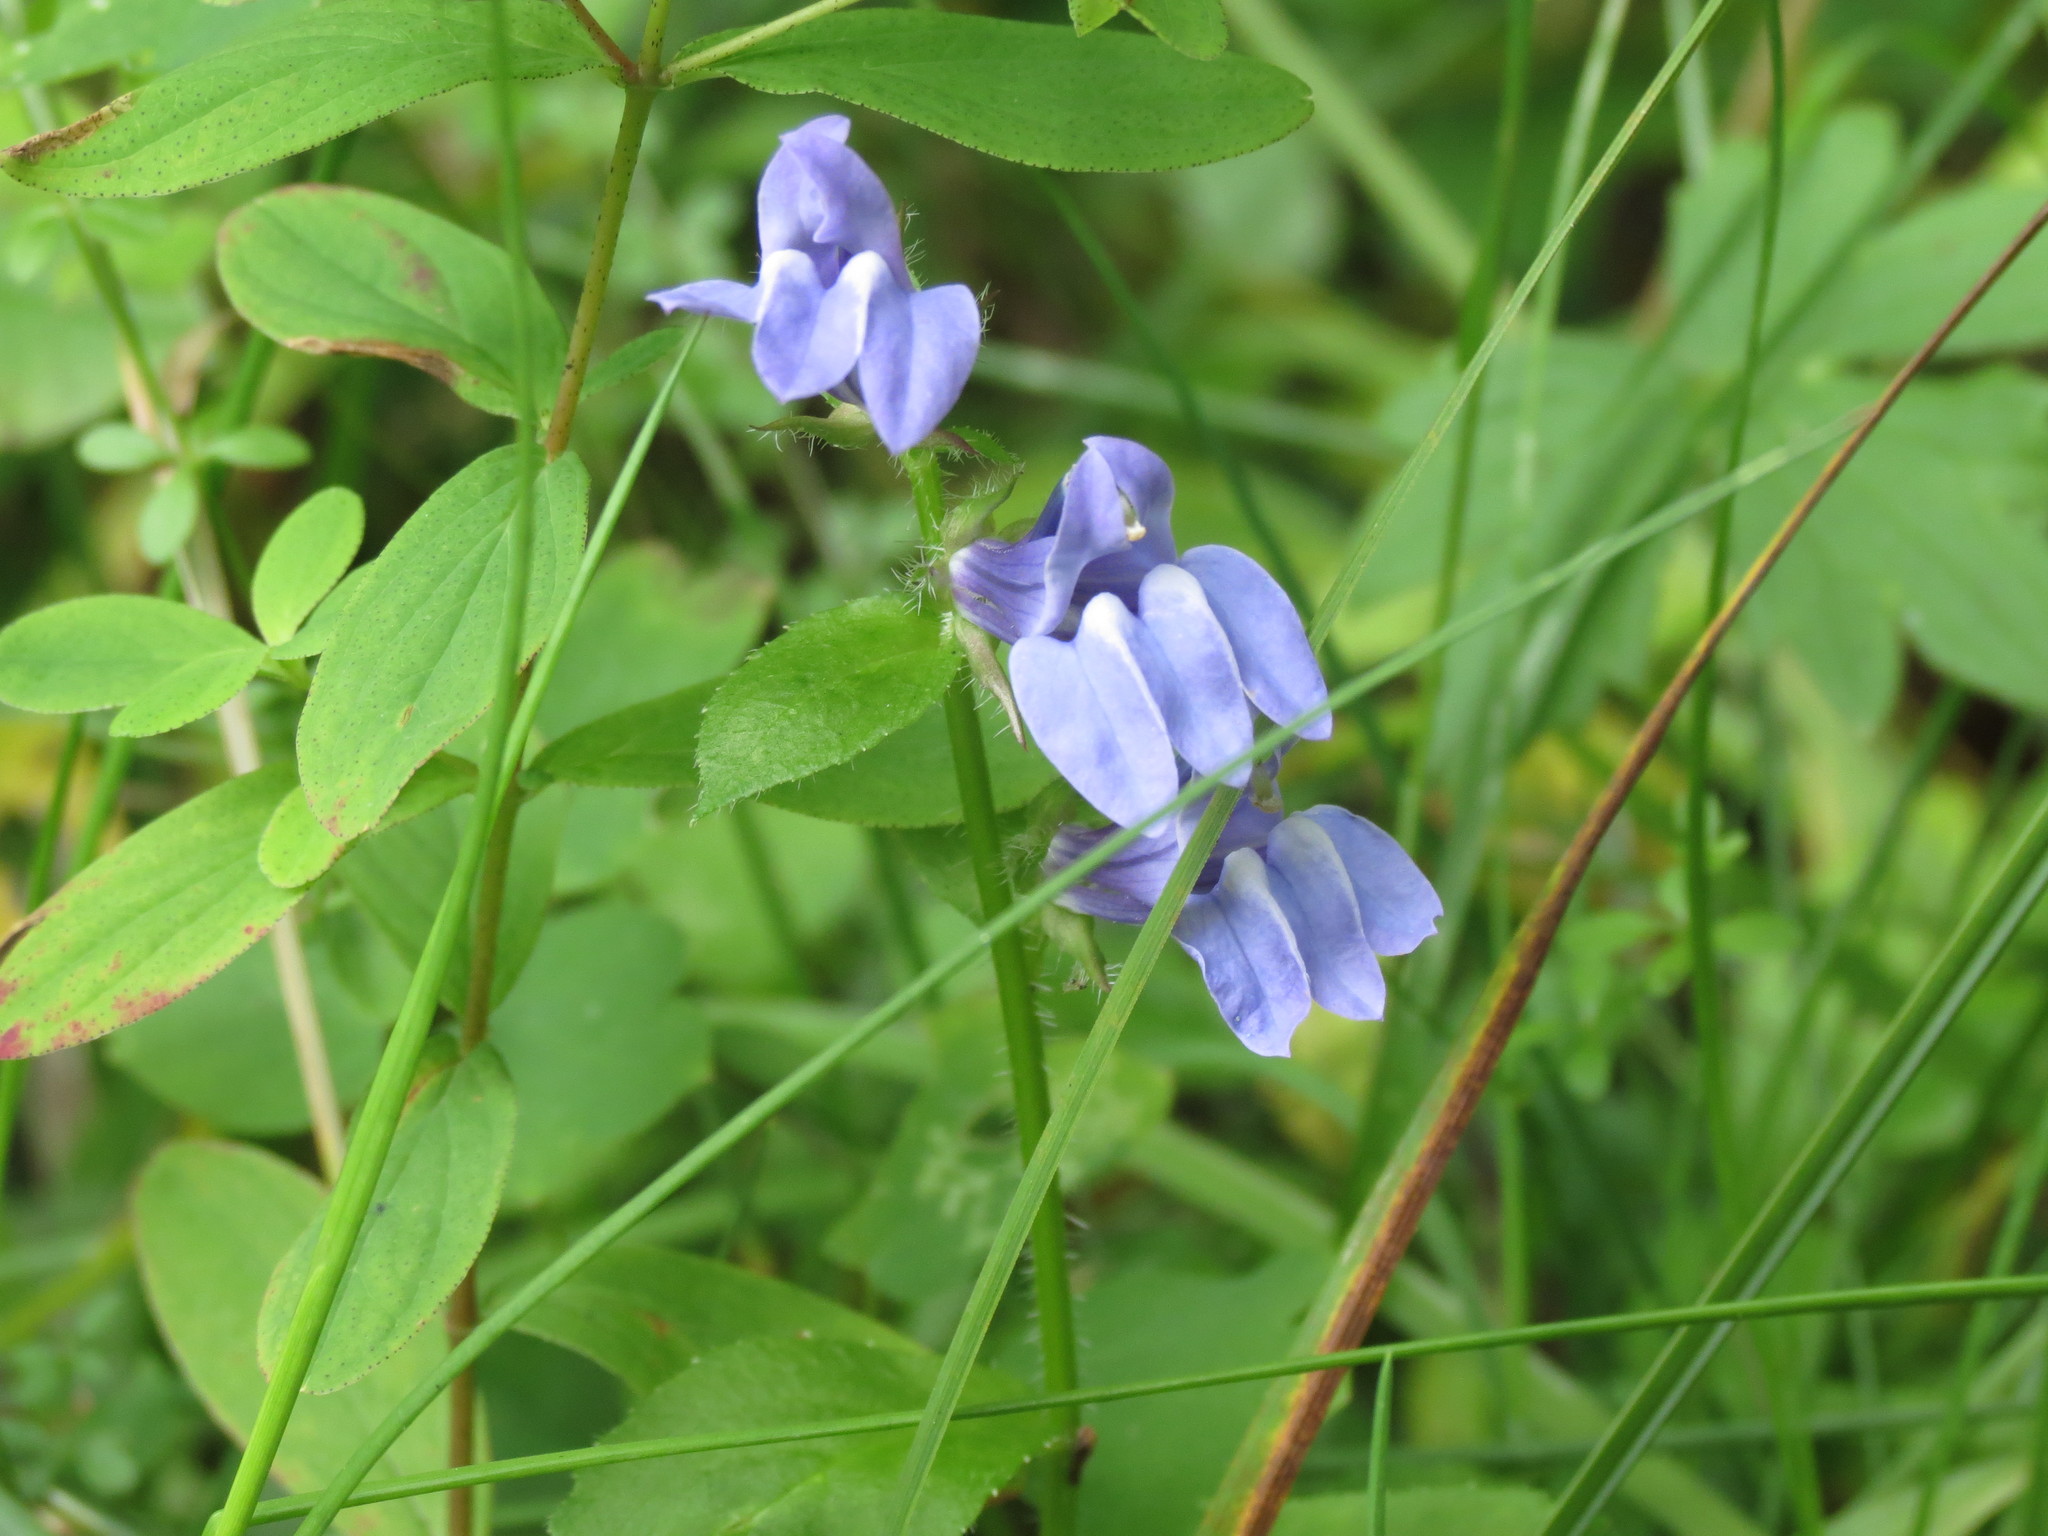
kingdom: Plantae
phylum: Tracheophyta
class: Magnoliopsida
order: Asterales
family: Campanulaceae
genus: Lobelia
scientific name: Lobelia siphilitica
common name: Great lobelia
